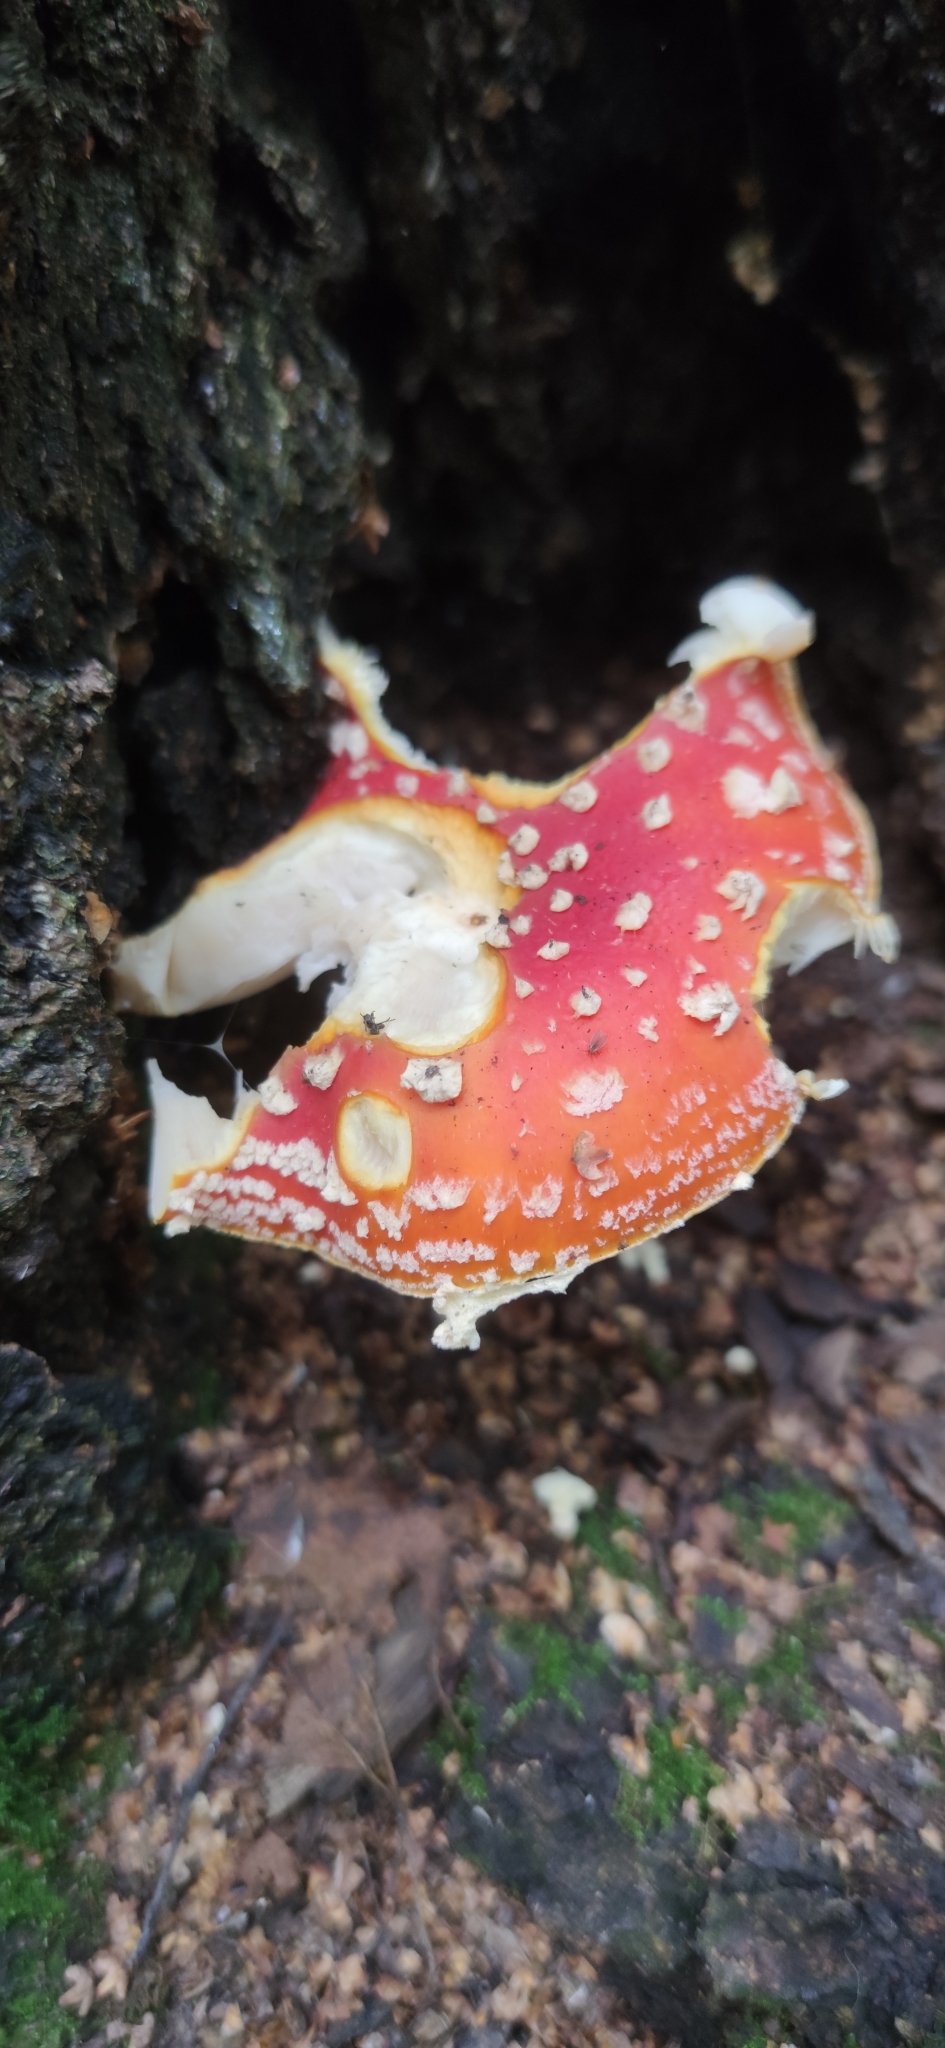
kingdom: Fungi
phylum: Basidiomycota
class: Agaricomycetes
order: Agaricales
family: Amanitaceae
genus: Amanita
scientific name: Amanita muscaria
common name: Fly agaric
